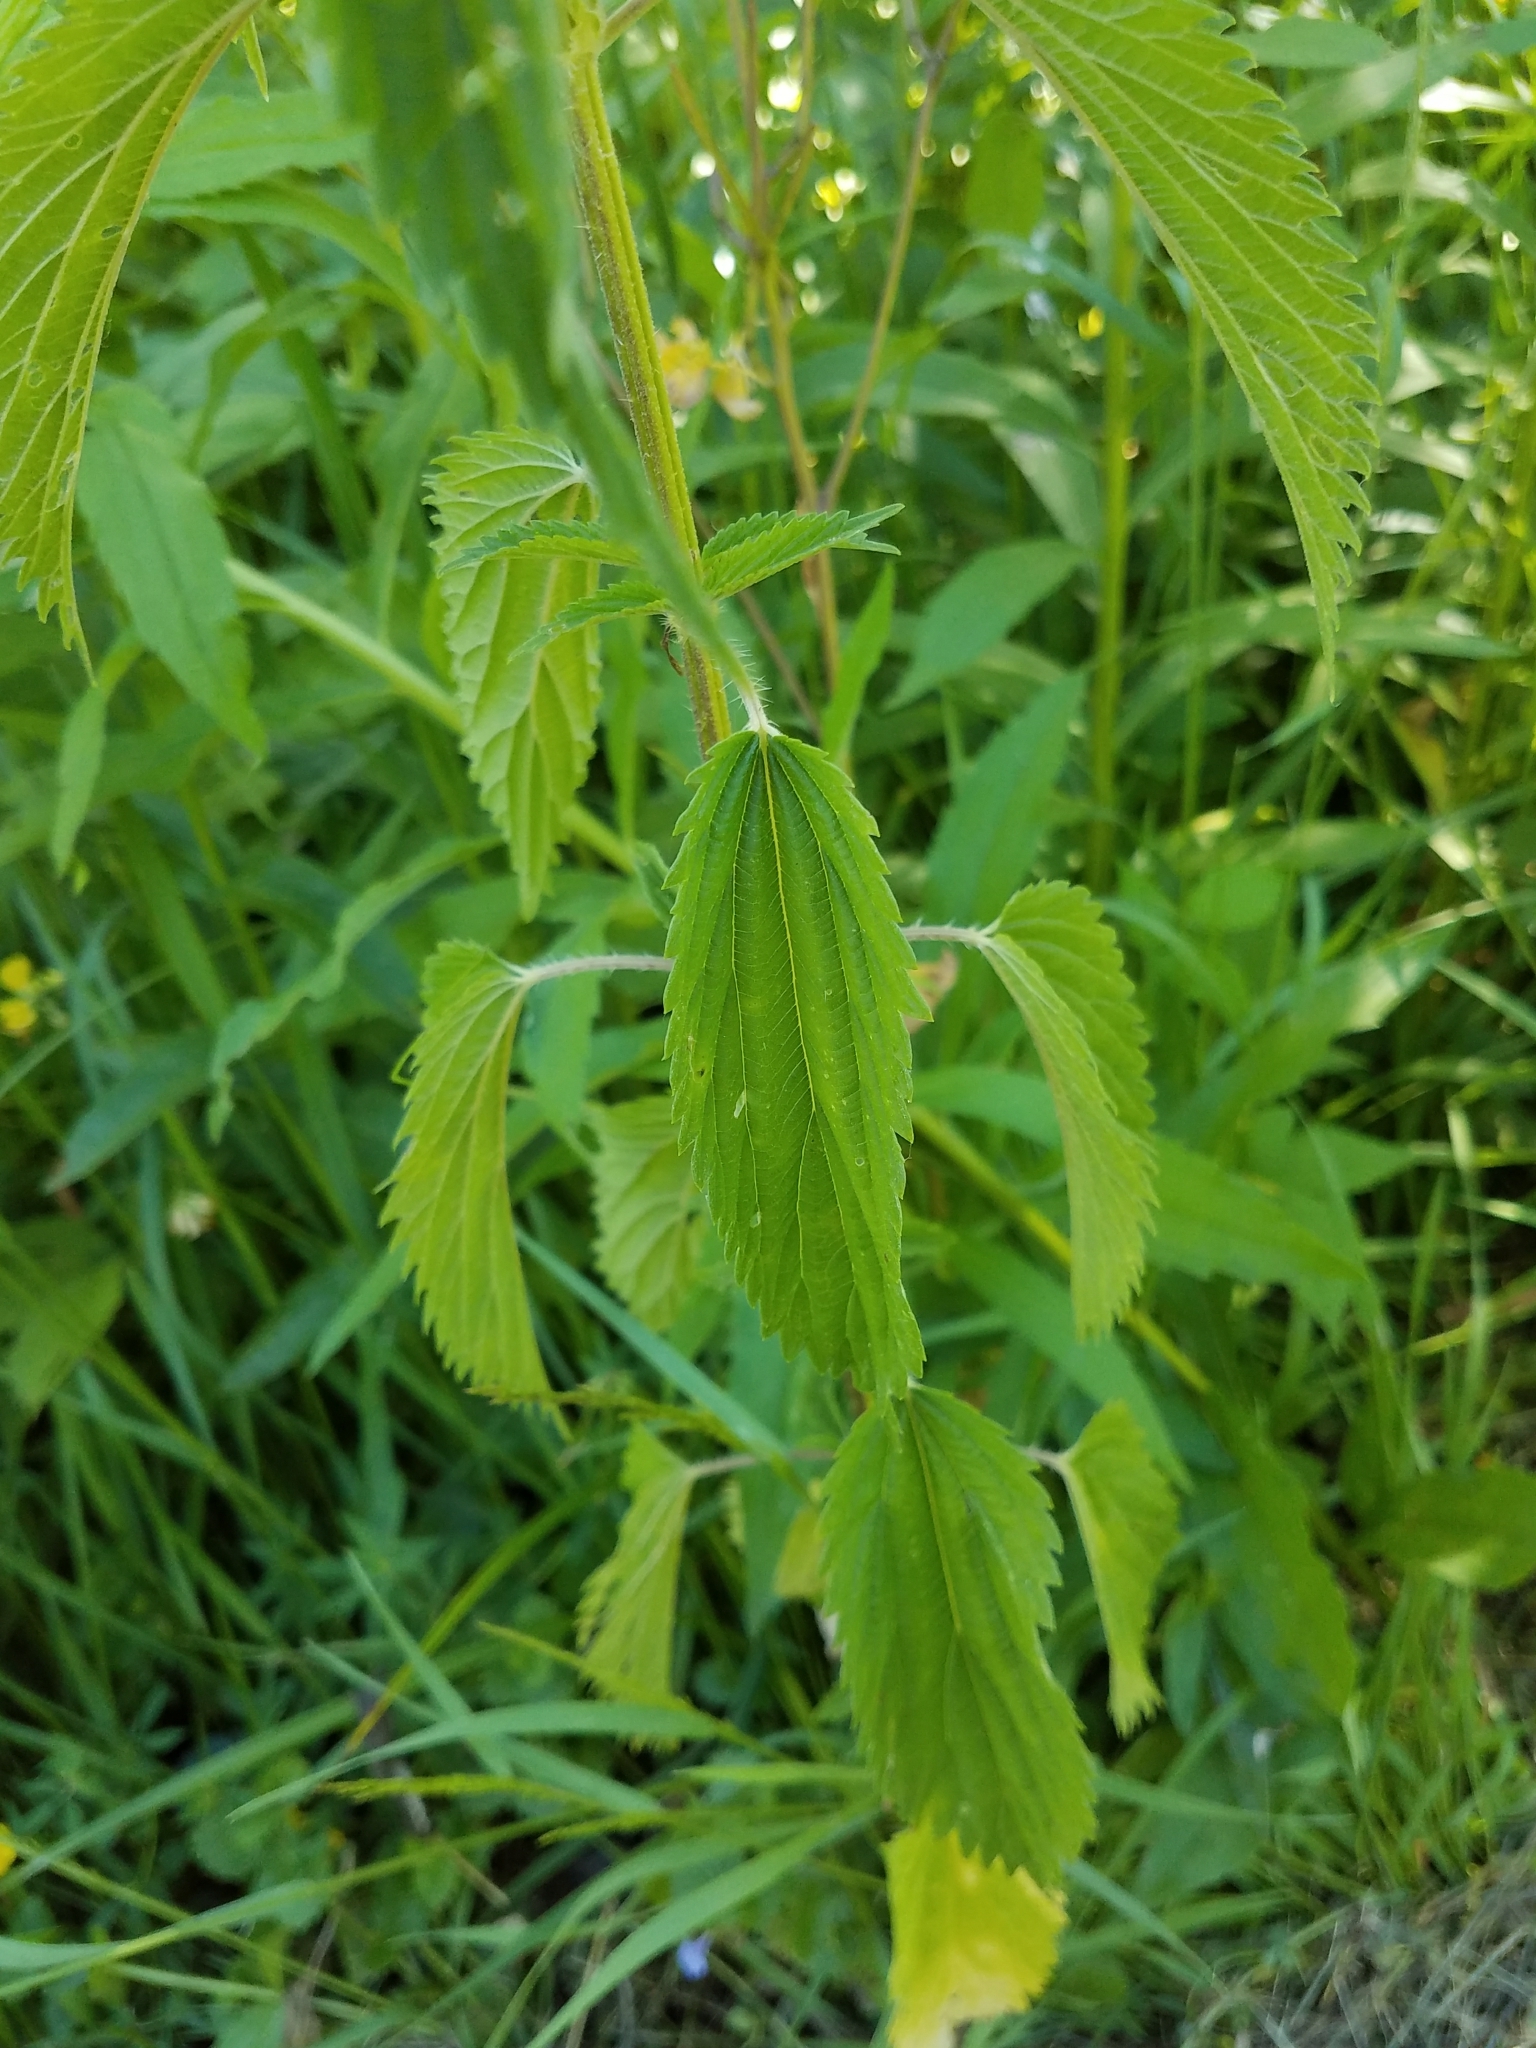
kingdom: Plantae
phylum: Tracheophyta
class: Magnoliopsida
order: Rosales
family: Urticaceae
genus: Urtica
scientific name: Urtica dioica
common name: Common nettle
